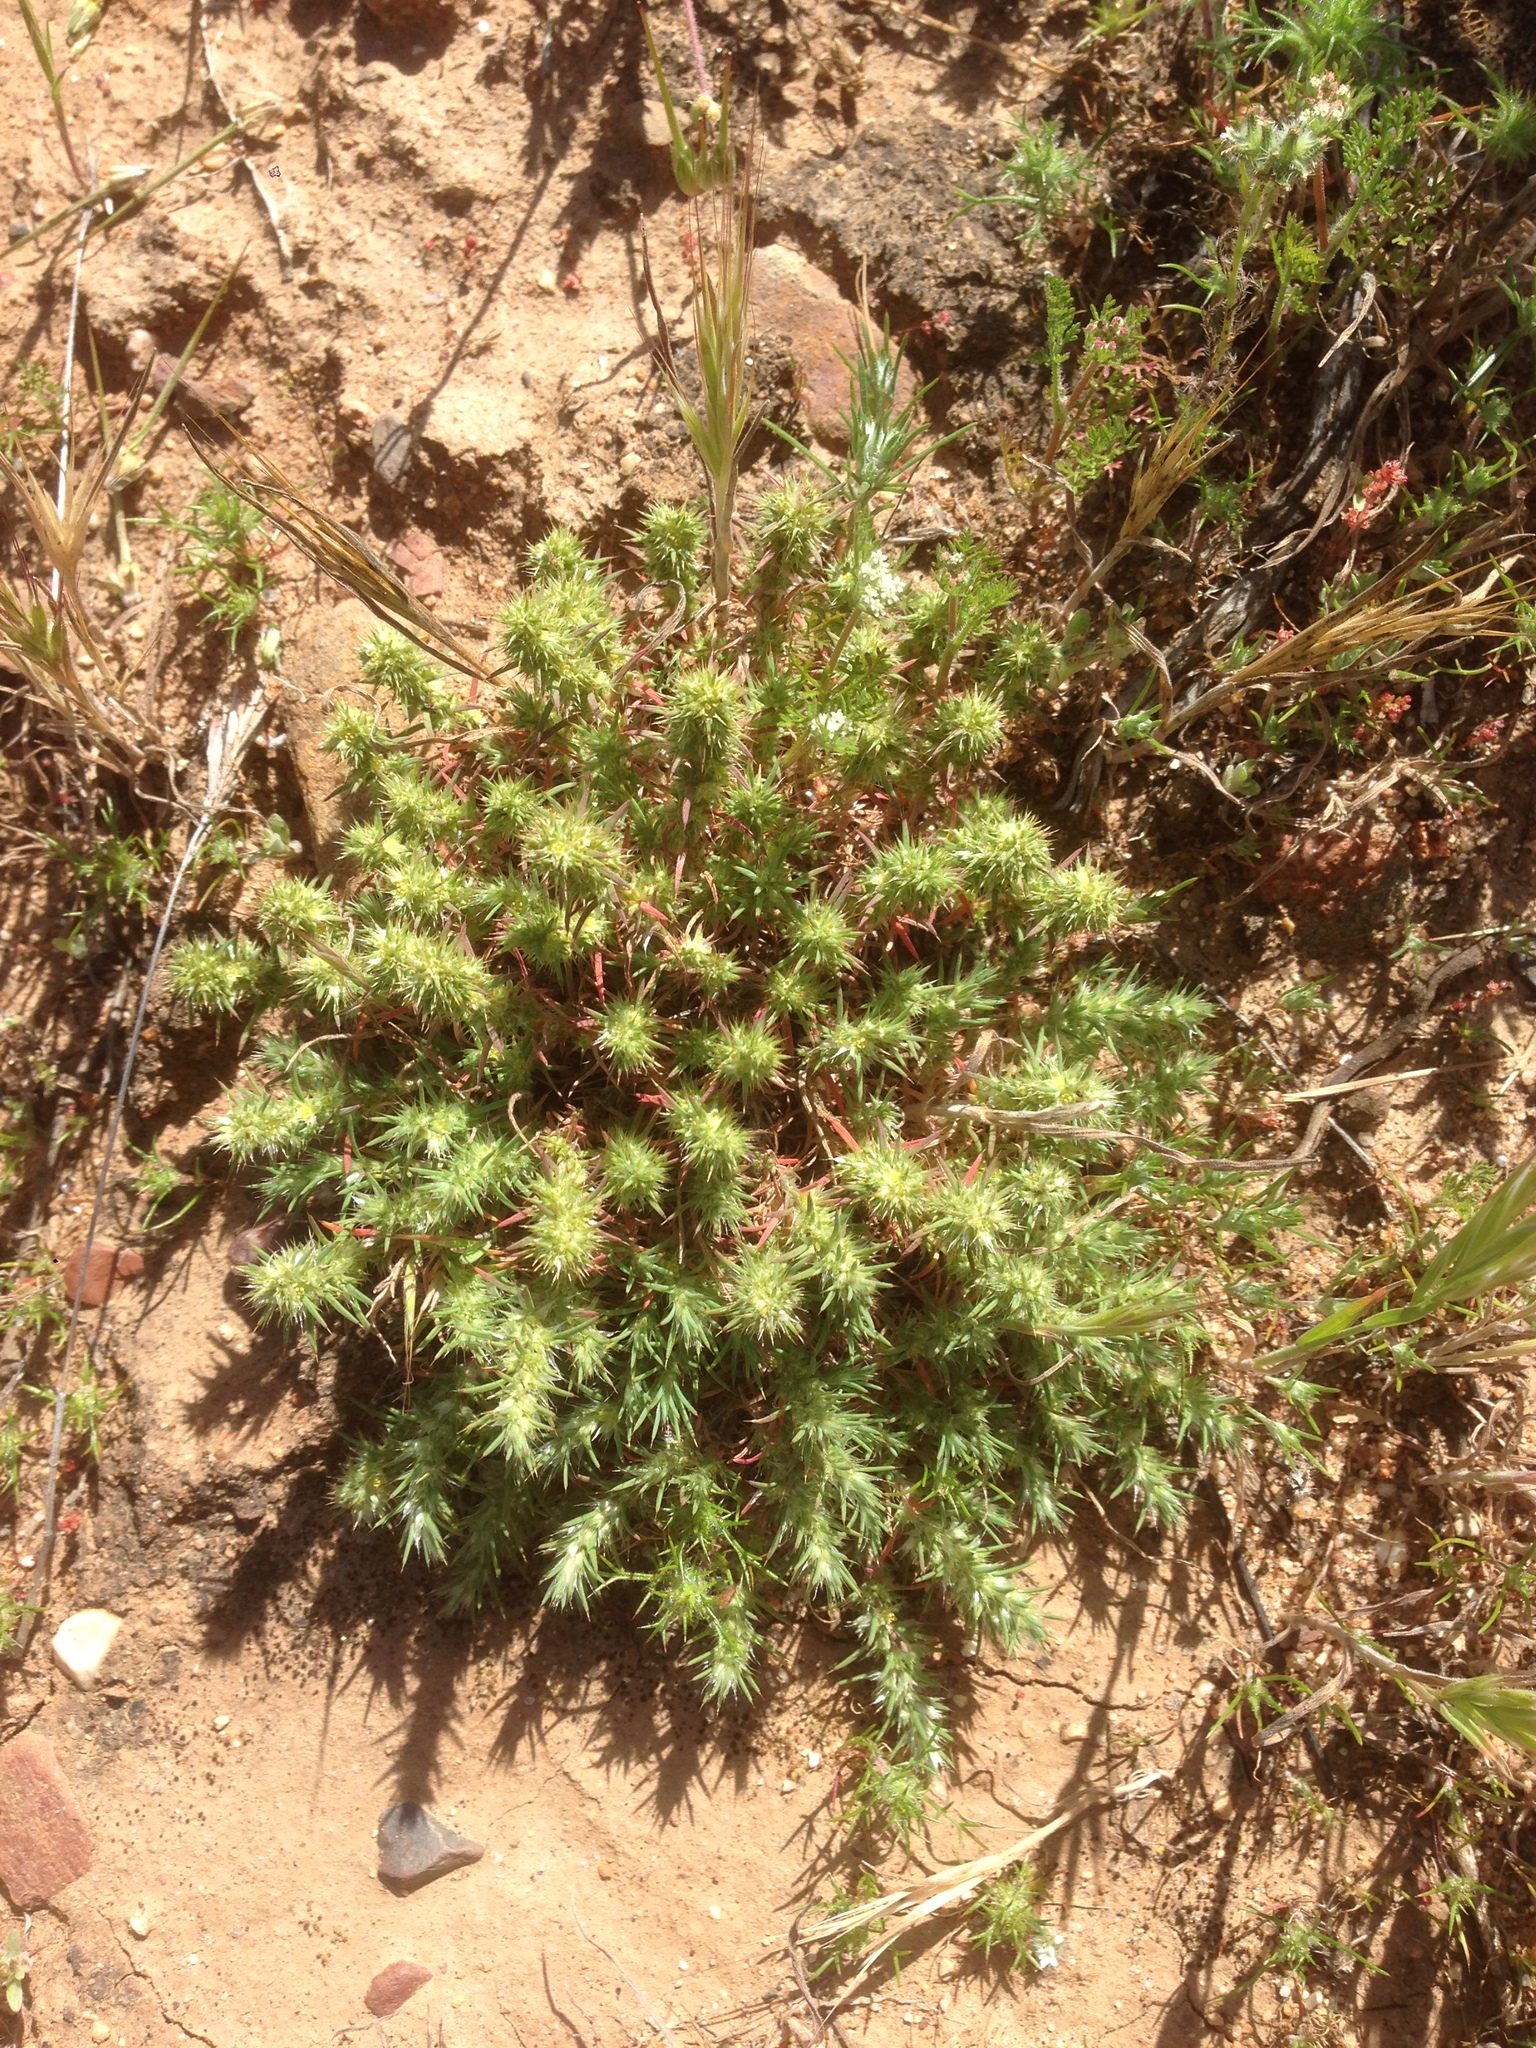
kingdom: Plantae
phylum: Tracheophyta
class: Magnoliopsida
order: Caryophyllales
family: Caryophyllaceae
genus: Cardionema
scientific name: Cardionema ramosissima
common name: Sandcarpet
